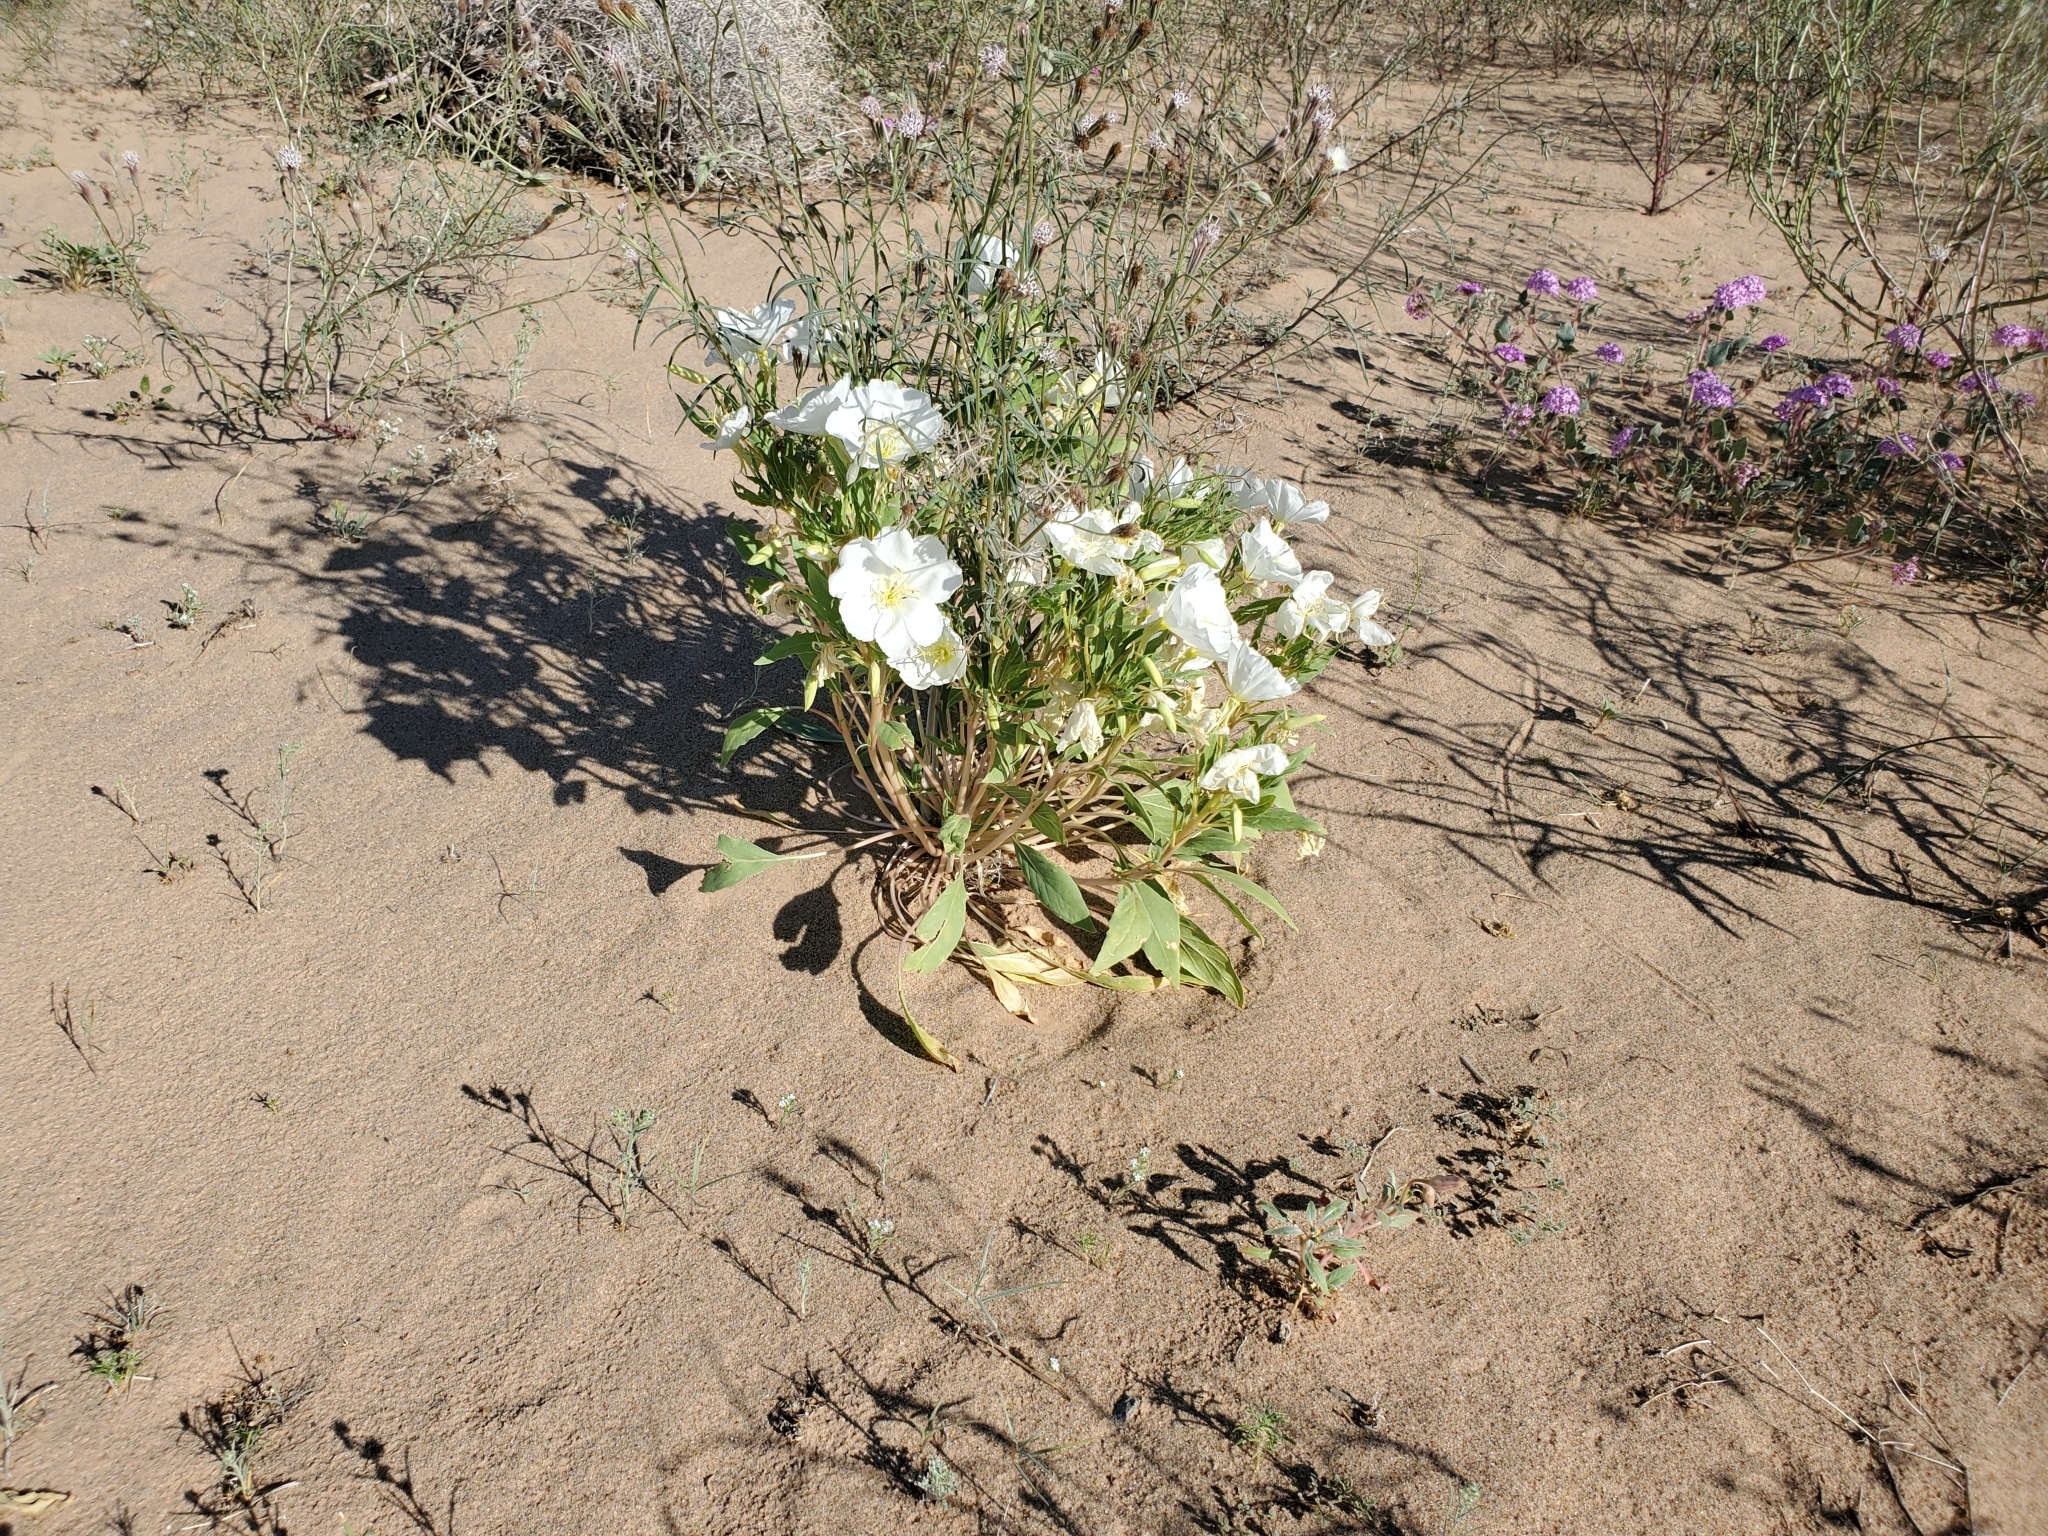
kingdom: Plantae
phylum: Tracheophyta
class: Magnoliopsida
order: Myrtales
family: Onagraceae
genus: Oenothera
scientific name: Oenothera deltoides
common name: Basket evening-primrose
